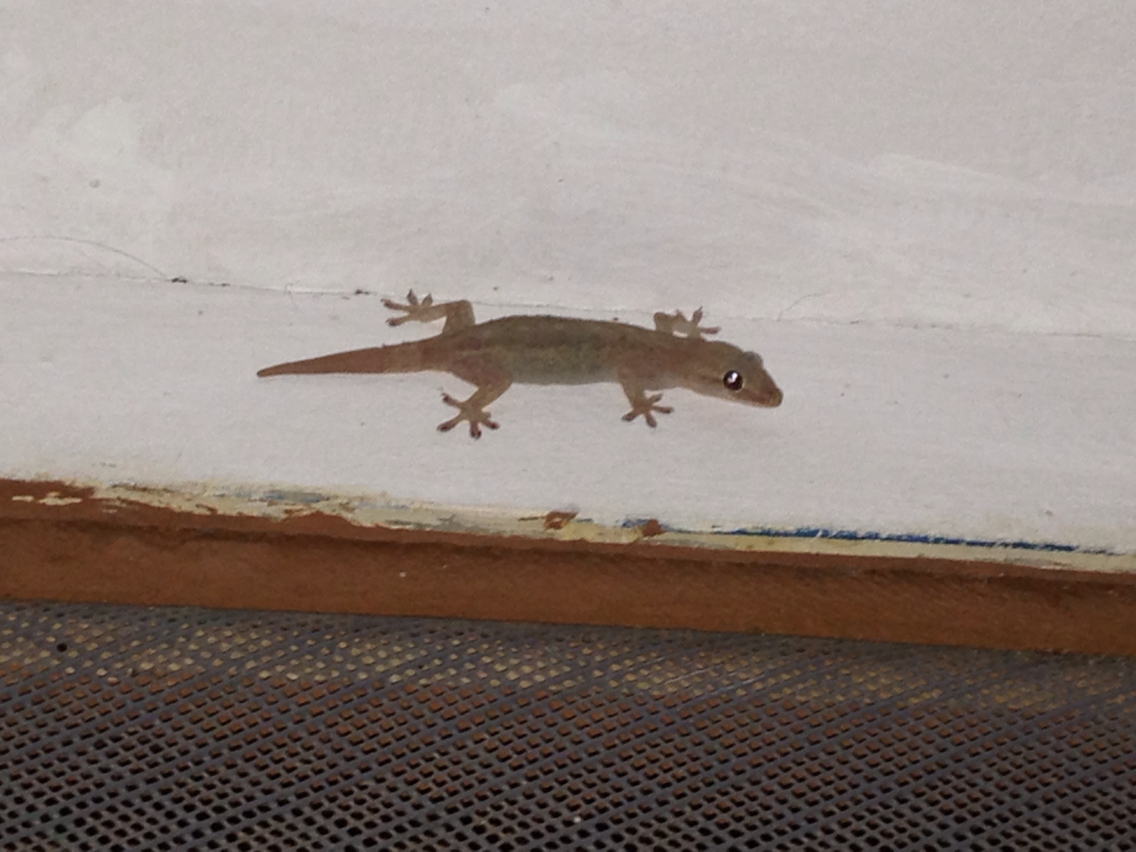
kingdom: Animalia
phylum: Chordata
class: Squamata
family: Gekkonidae
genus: Hemidactylus
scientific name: Hemidactylus frenatus
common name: Common house gecko
